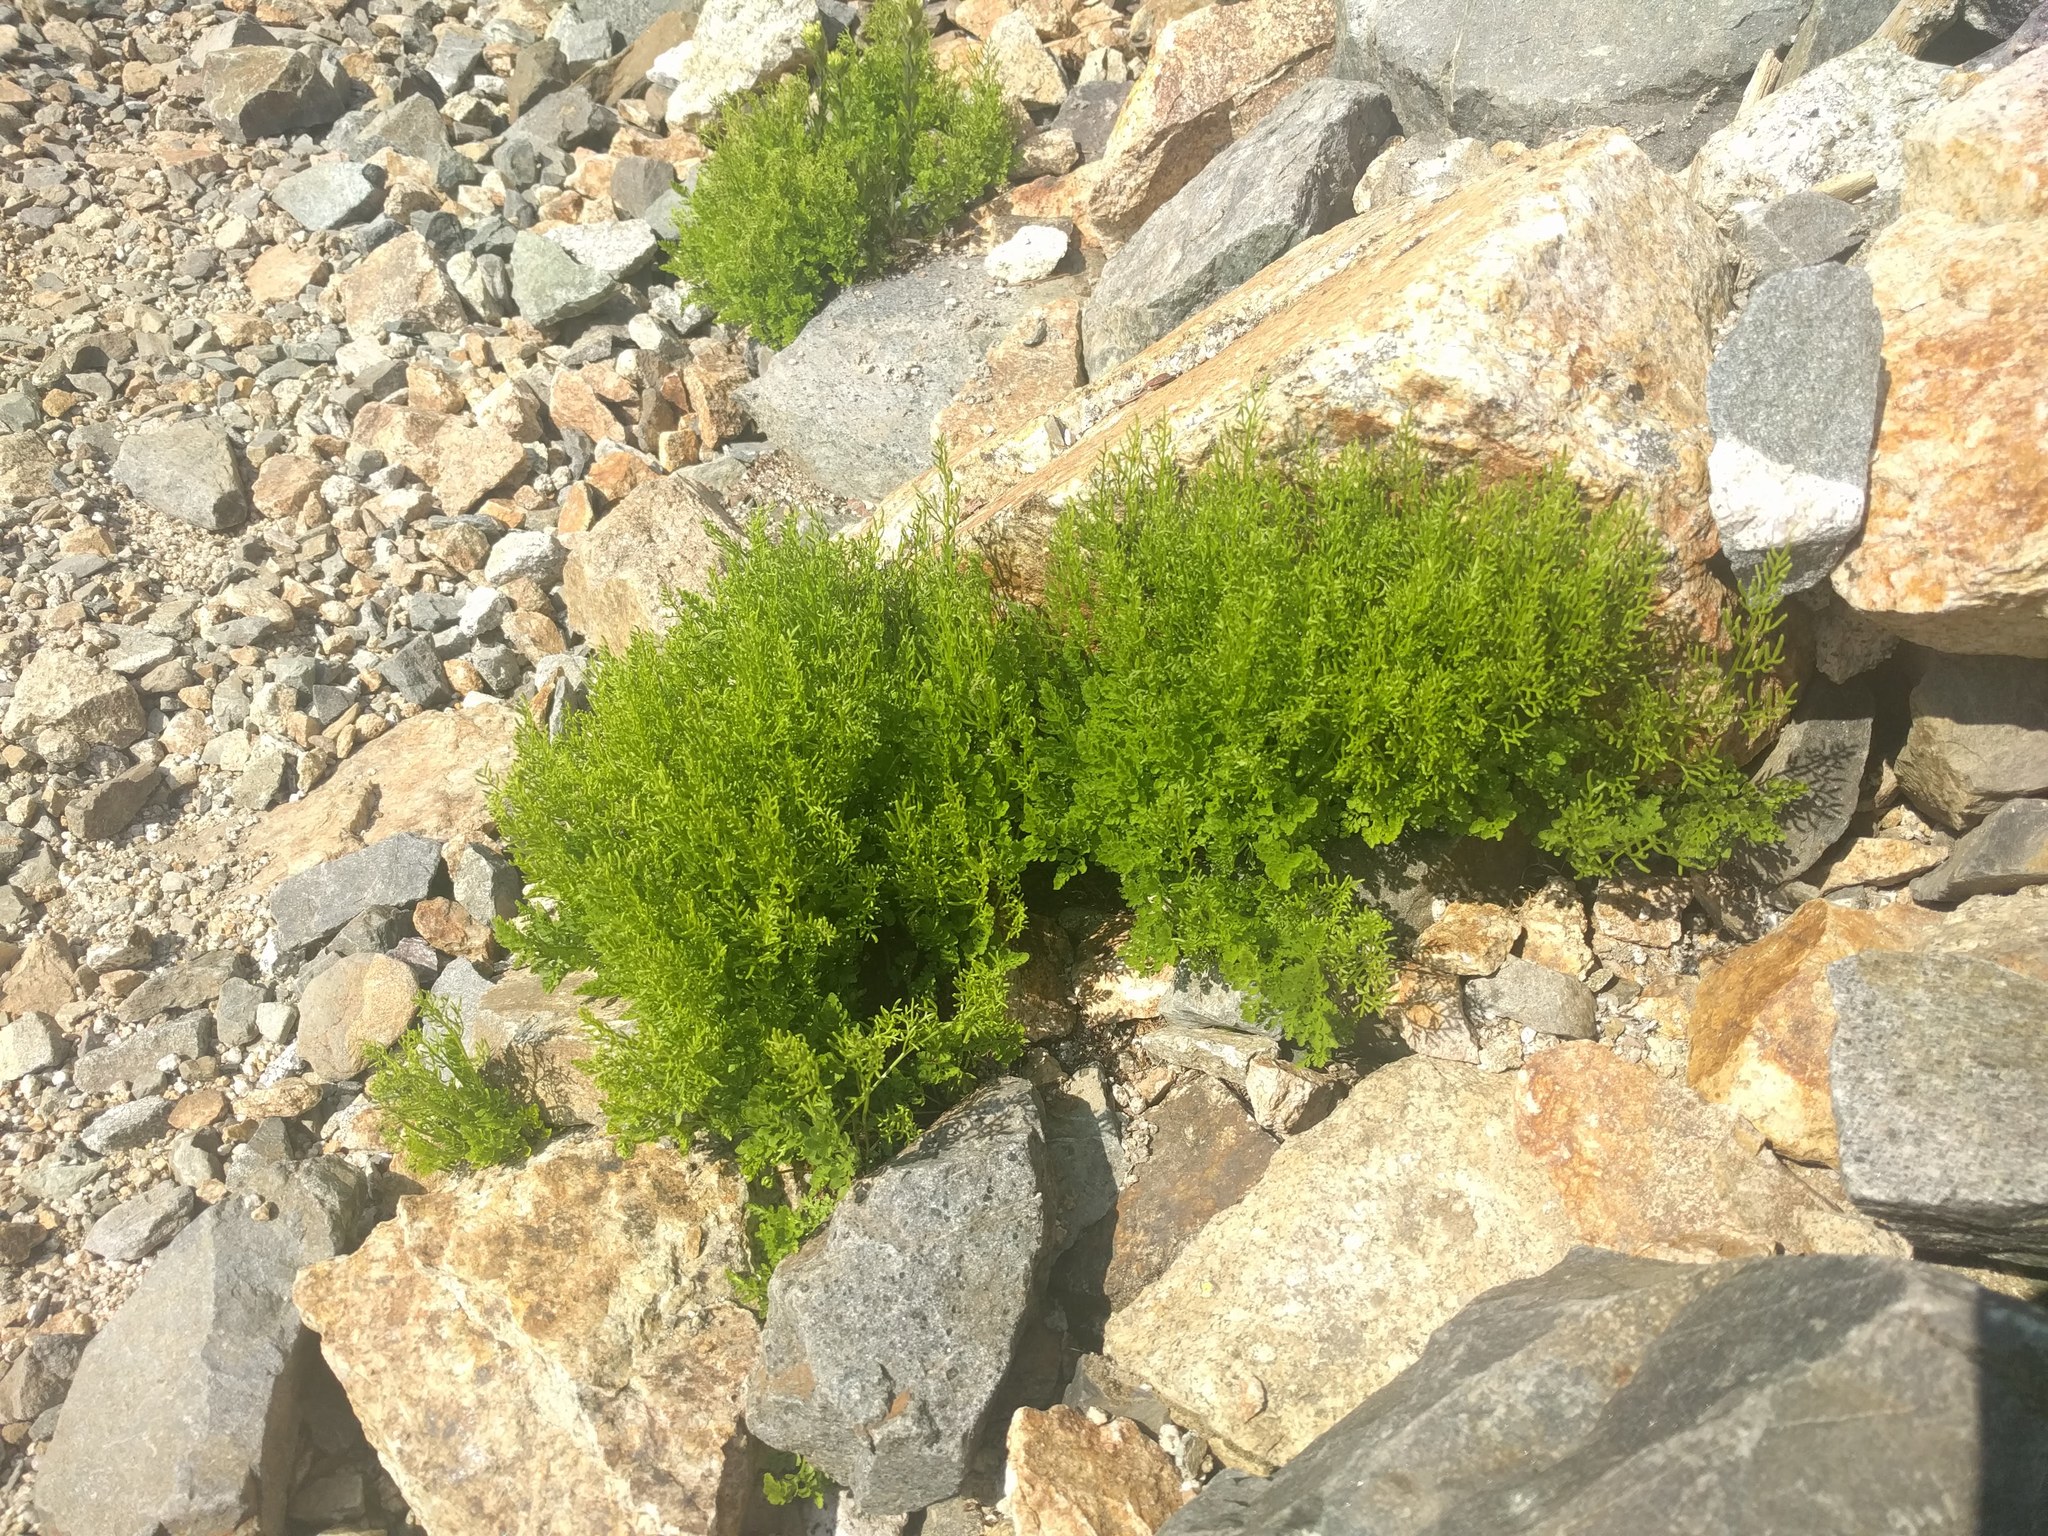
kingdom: Plantae
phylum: Tracheophyta
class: Polypodiopsida
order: Polypodiales
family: Pteridaceae
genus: Cryptogramma
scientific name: Cryptogramma cascadensis
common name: Cascade parsley fern
